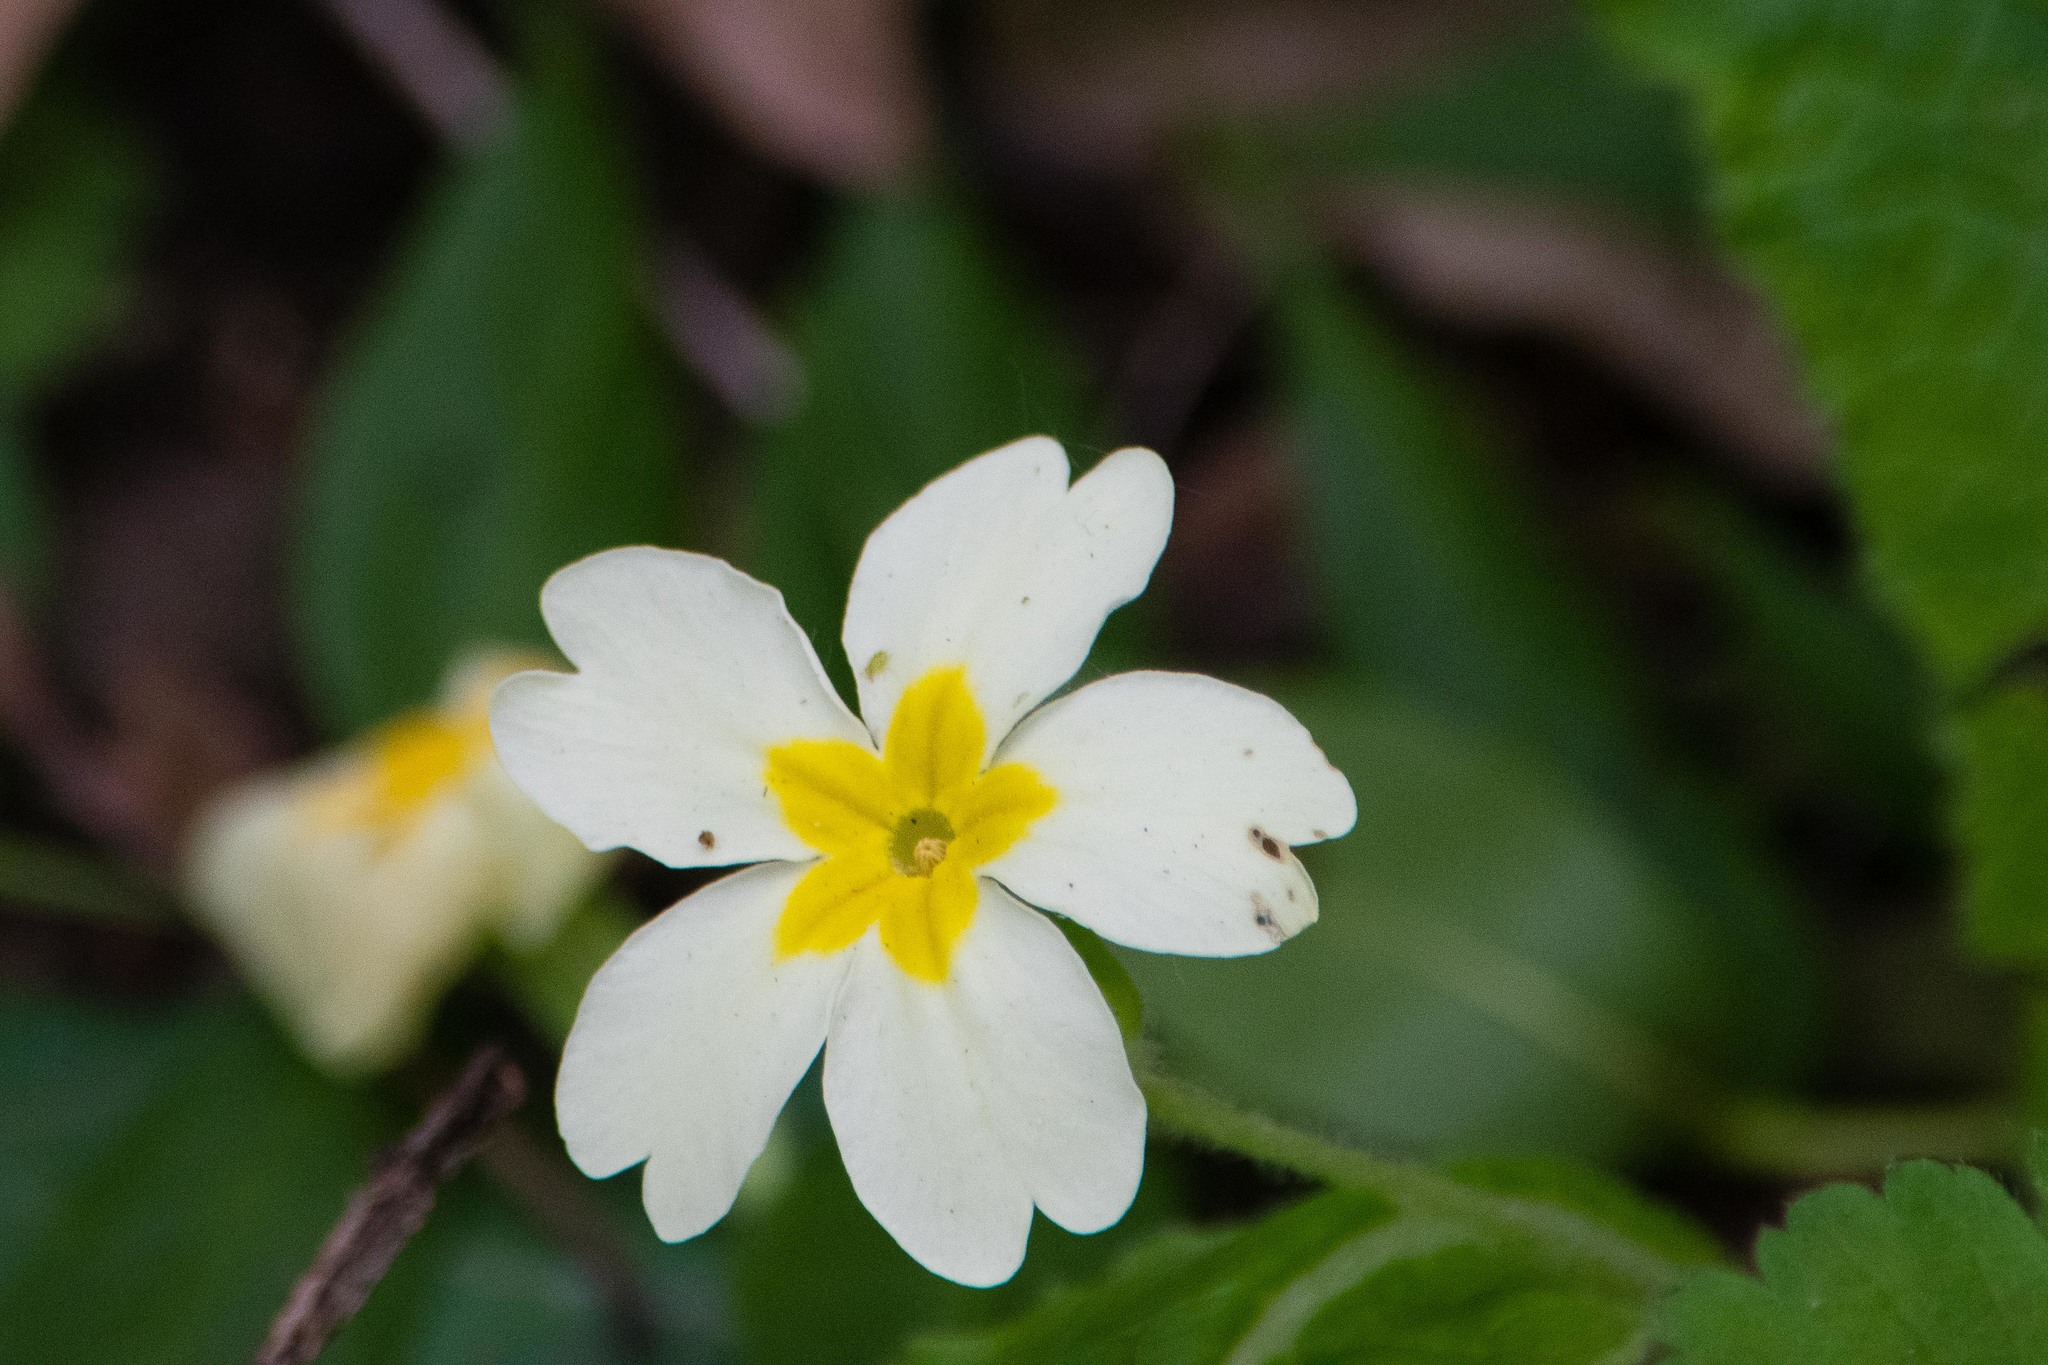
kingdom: Plantae
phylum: Tracheophyta
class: Magnoliopsida
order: Ericales
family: Primulaceae
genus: Primula
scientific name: Primula vulgaris
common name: Primrose
